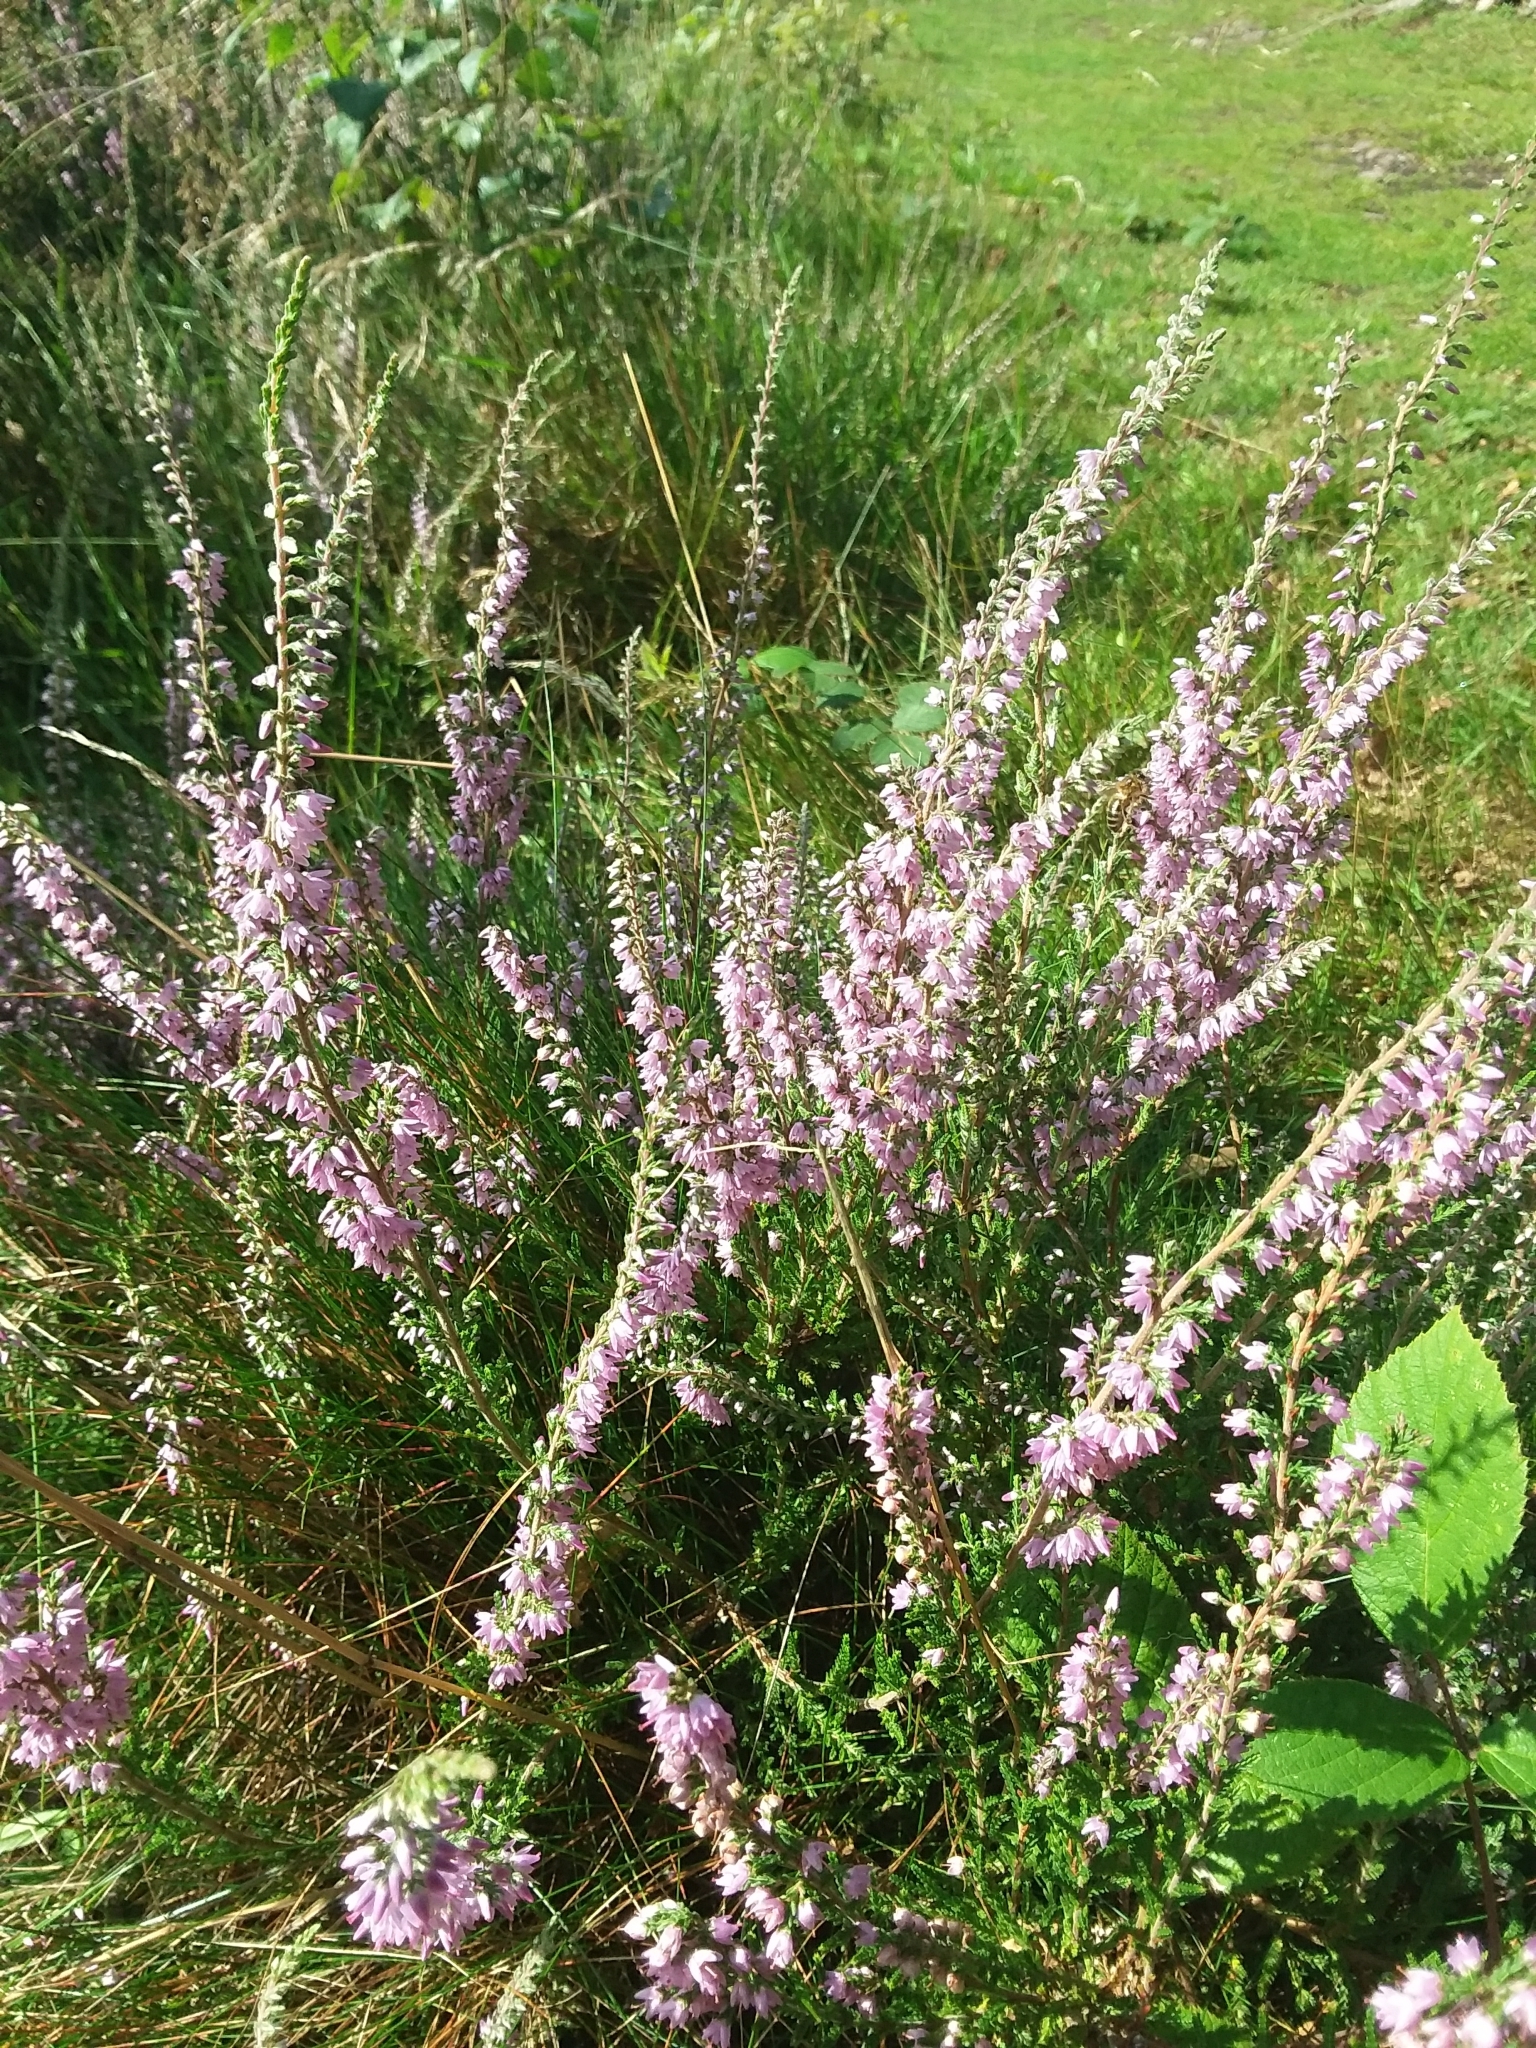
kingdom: Plantae
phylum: Tracheophyta
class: Magnoliopsida
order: Ericales
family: Ericaceae
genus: Calluna
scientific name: Calluna vulgaris
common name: Heather
